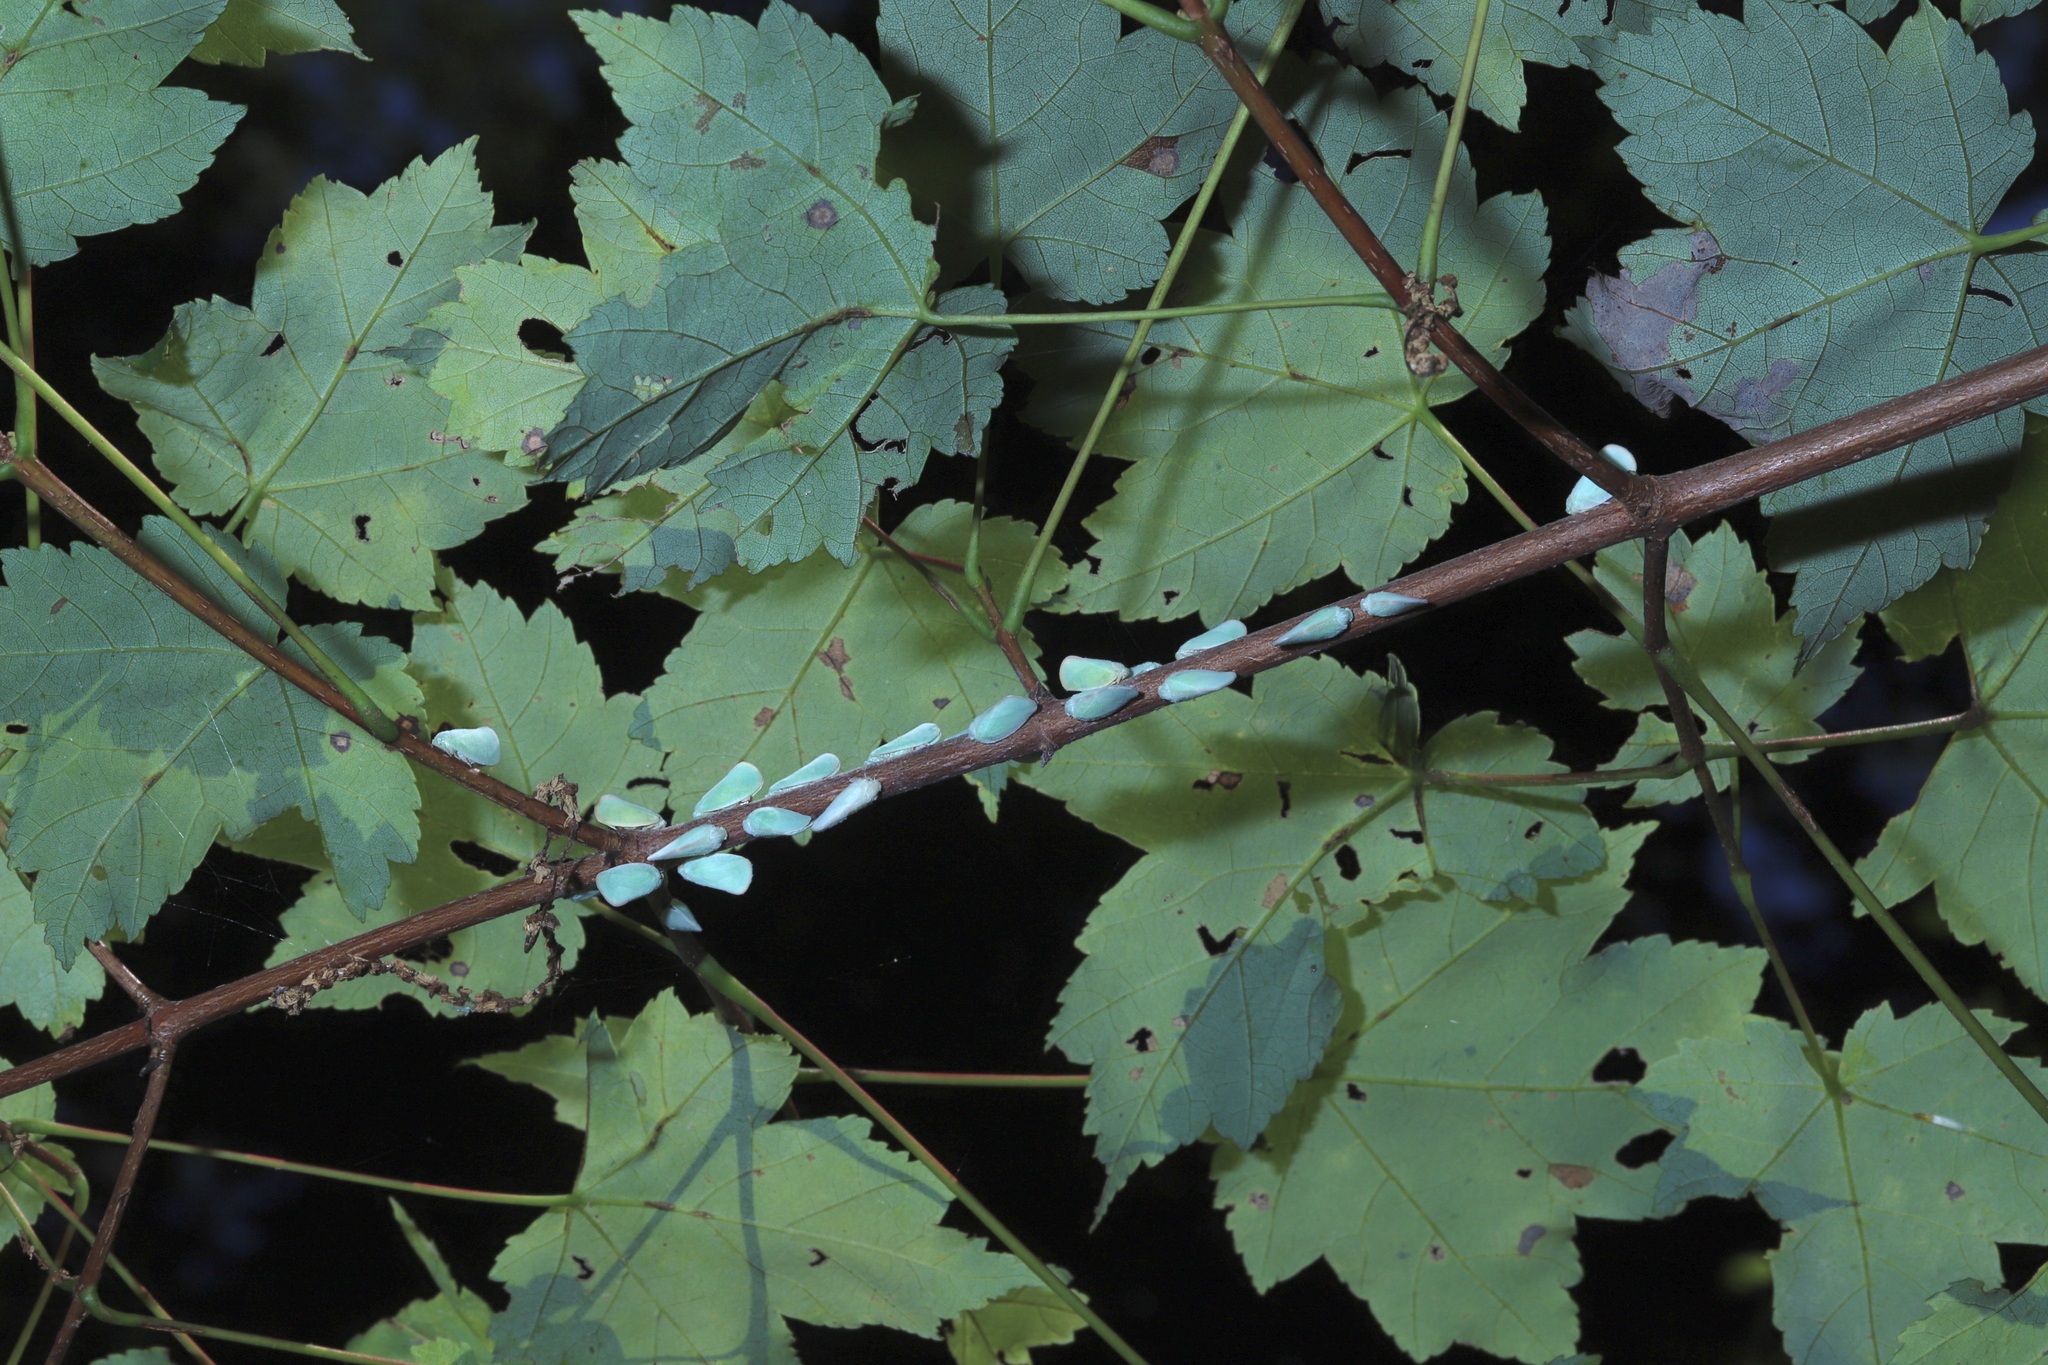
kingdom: Animalia
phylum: Arthropoda
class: Insecta
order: Hemiptera
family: Flatidae
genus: Ormenoides
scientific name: Ormenoides venusta
